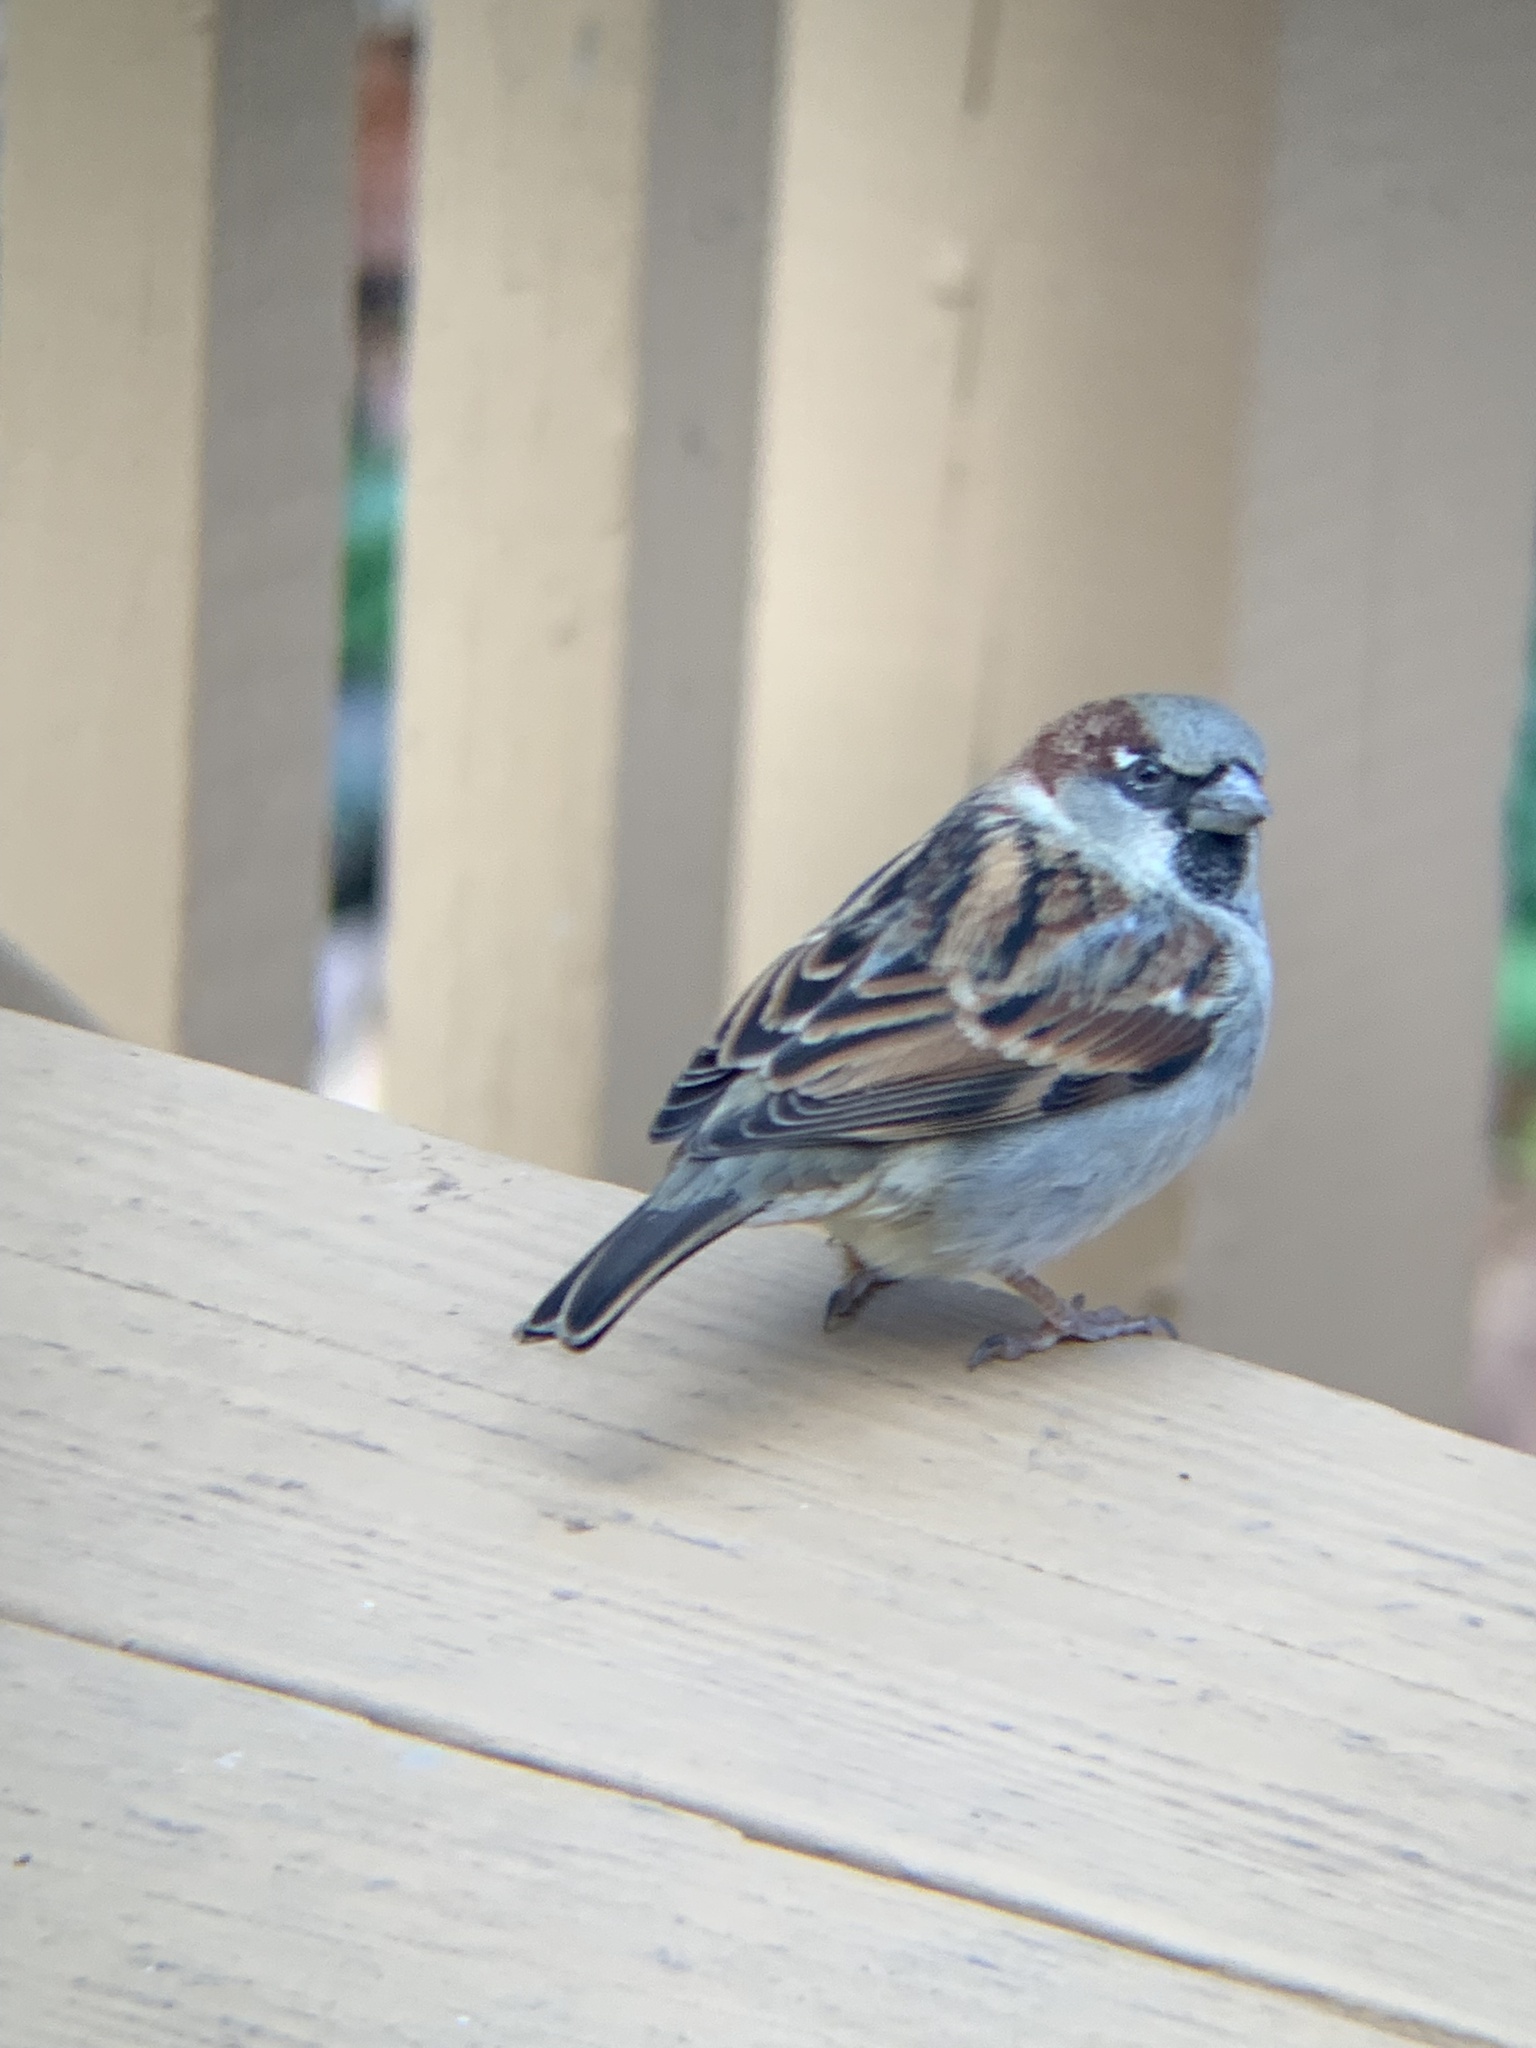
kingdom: Animalia
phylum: Chordata
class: Aves
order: Passeriformes
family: Passeridae
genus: Passer
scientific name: Passer domesticus
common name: House sparrow
